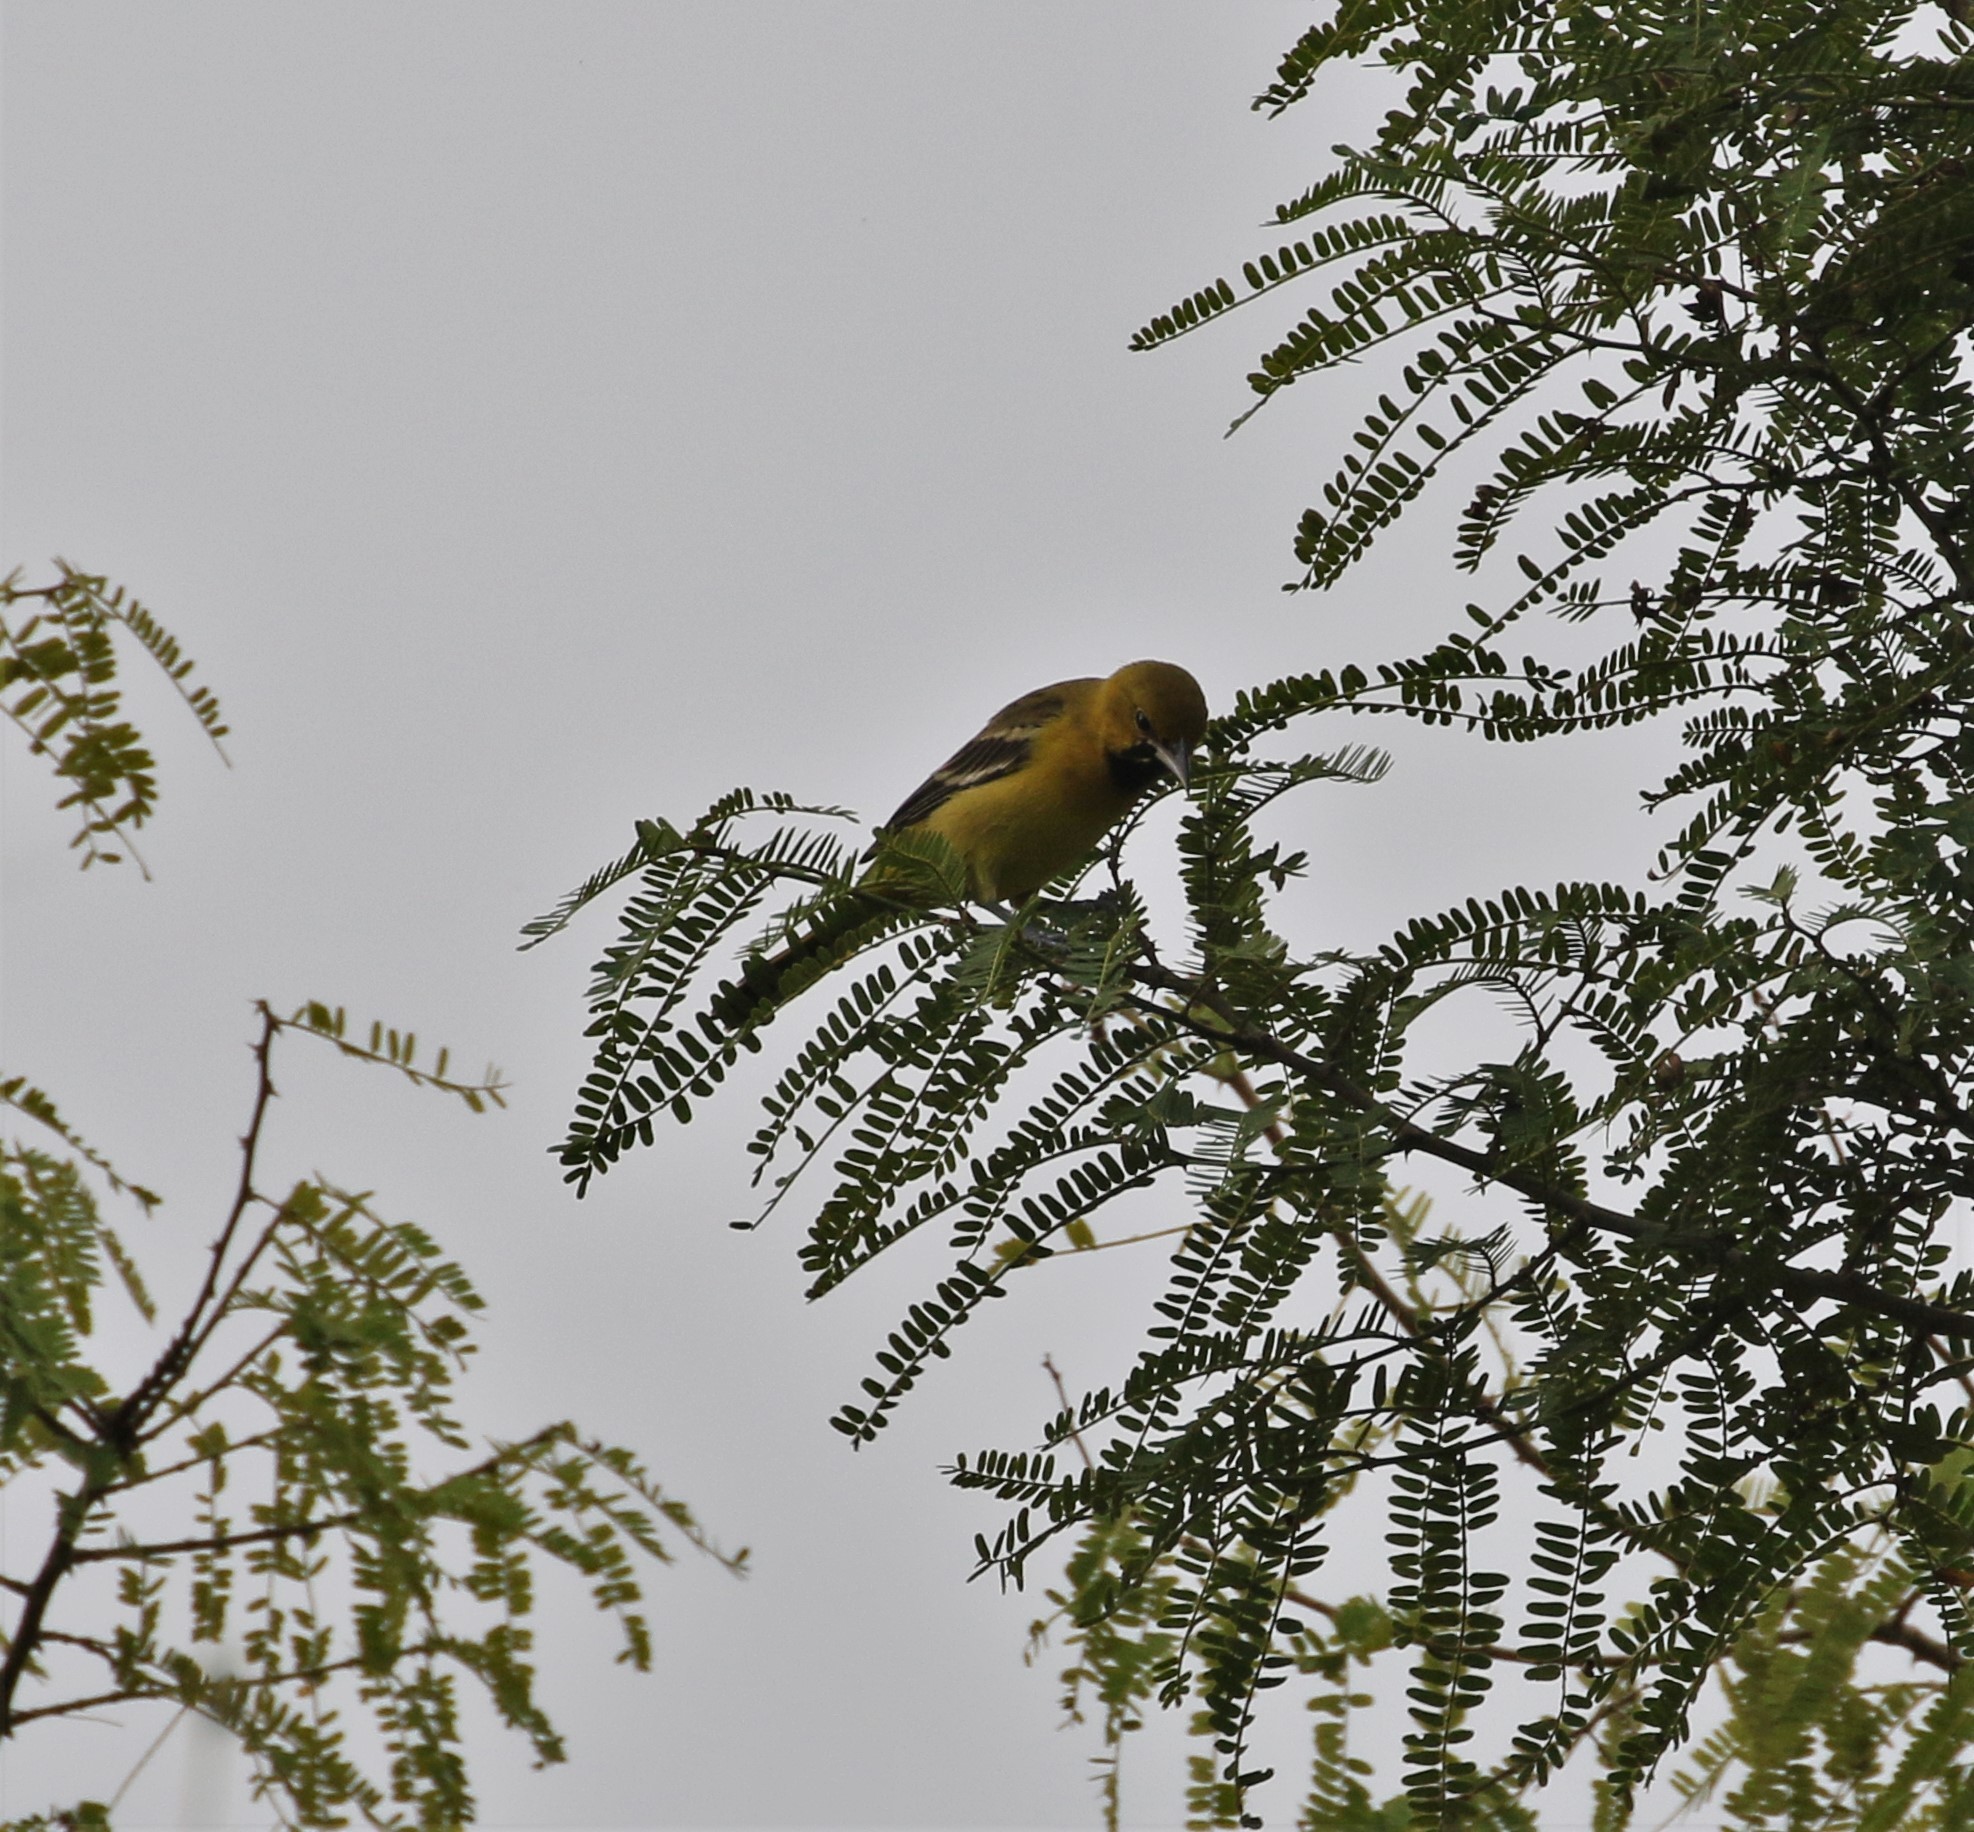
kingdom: Animalia
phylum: Chordata
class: Aves
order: Passeriformes
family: Icteridae
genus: Icterus
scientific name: Icterus spurius
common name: Orchard oriole
